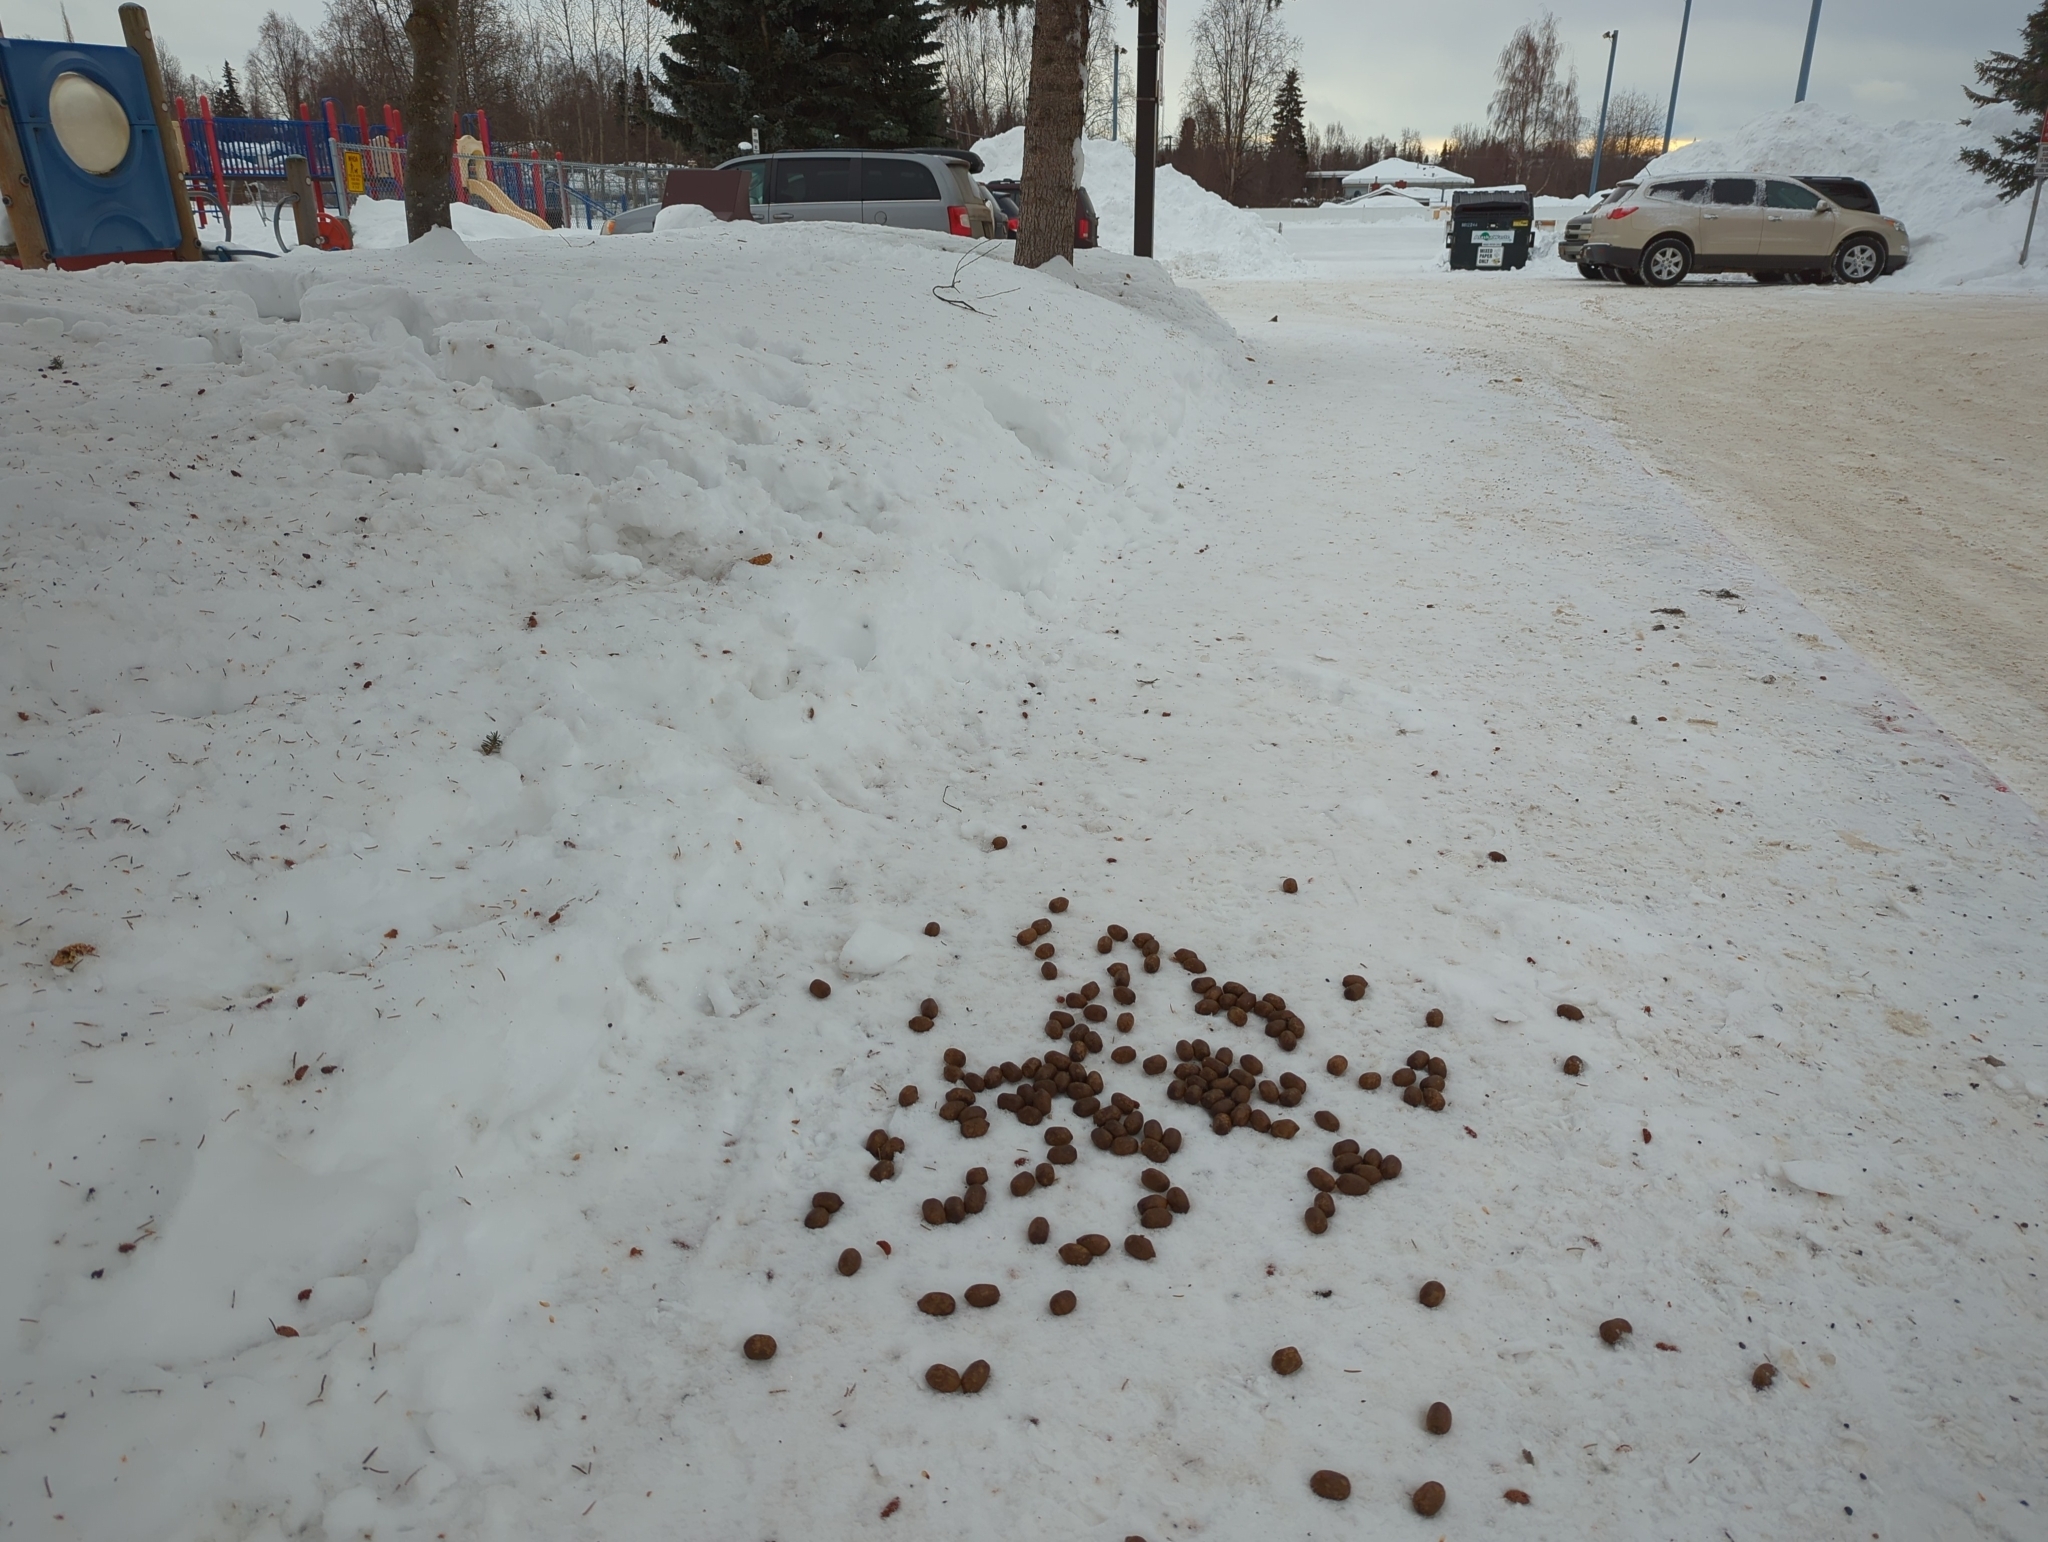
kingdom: Animalia
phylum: Chordata
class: Mammalia
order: Artiodactyla
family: Cervidae
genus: Alces
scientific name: Alces alces
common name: Moose
